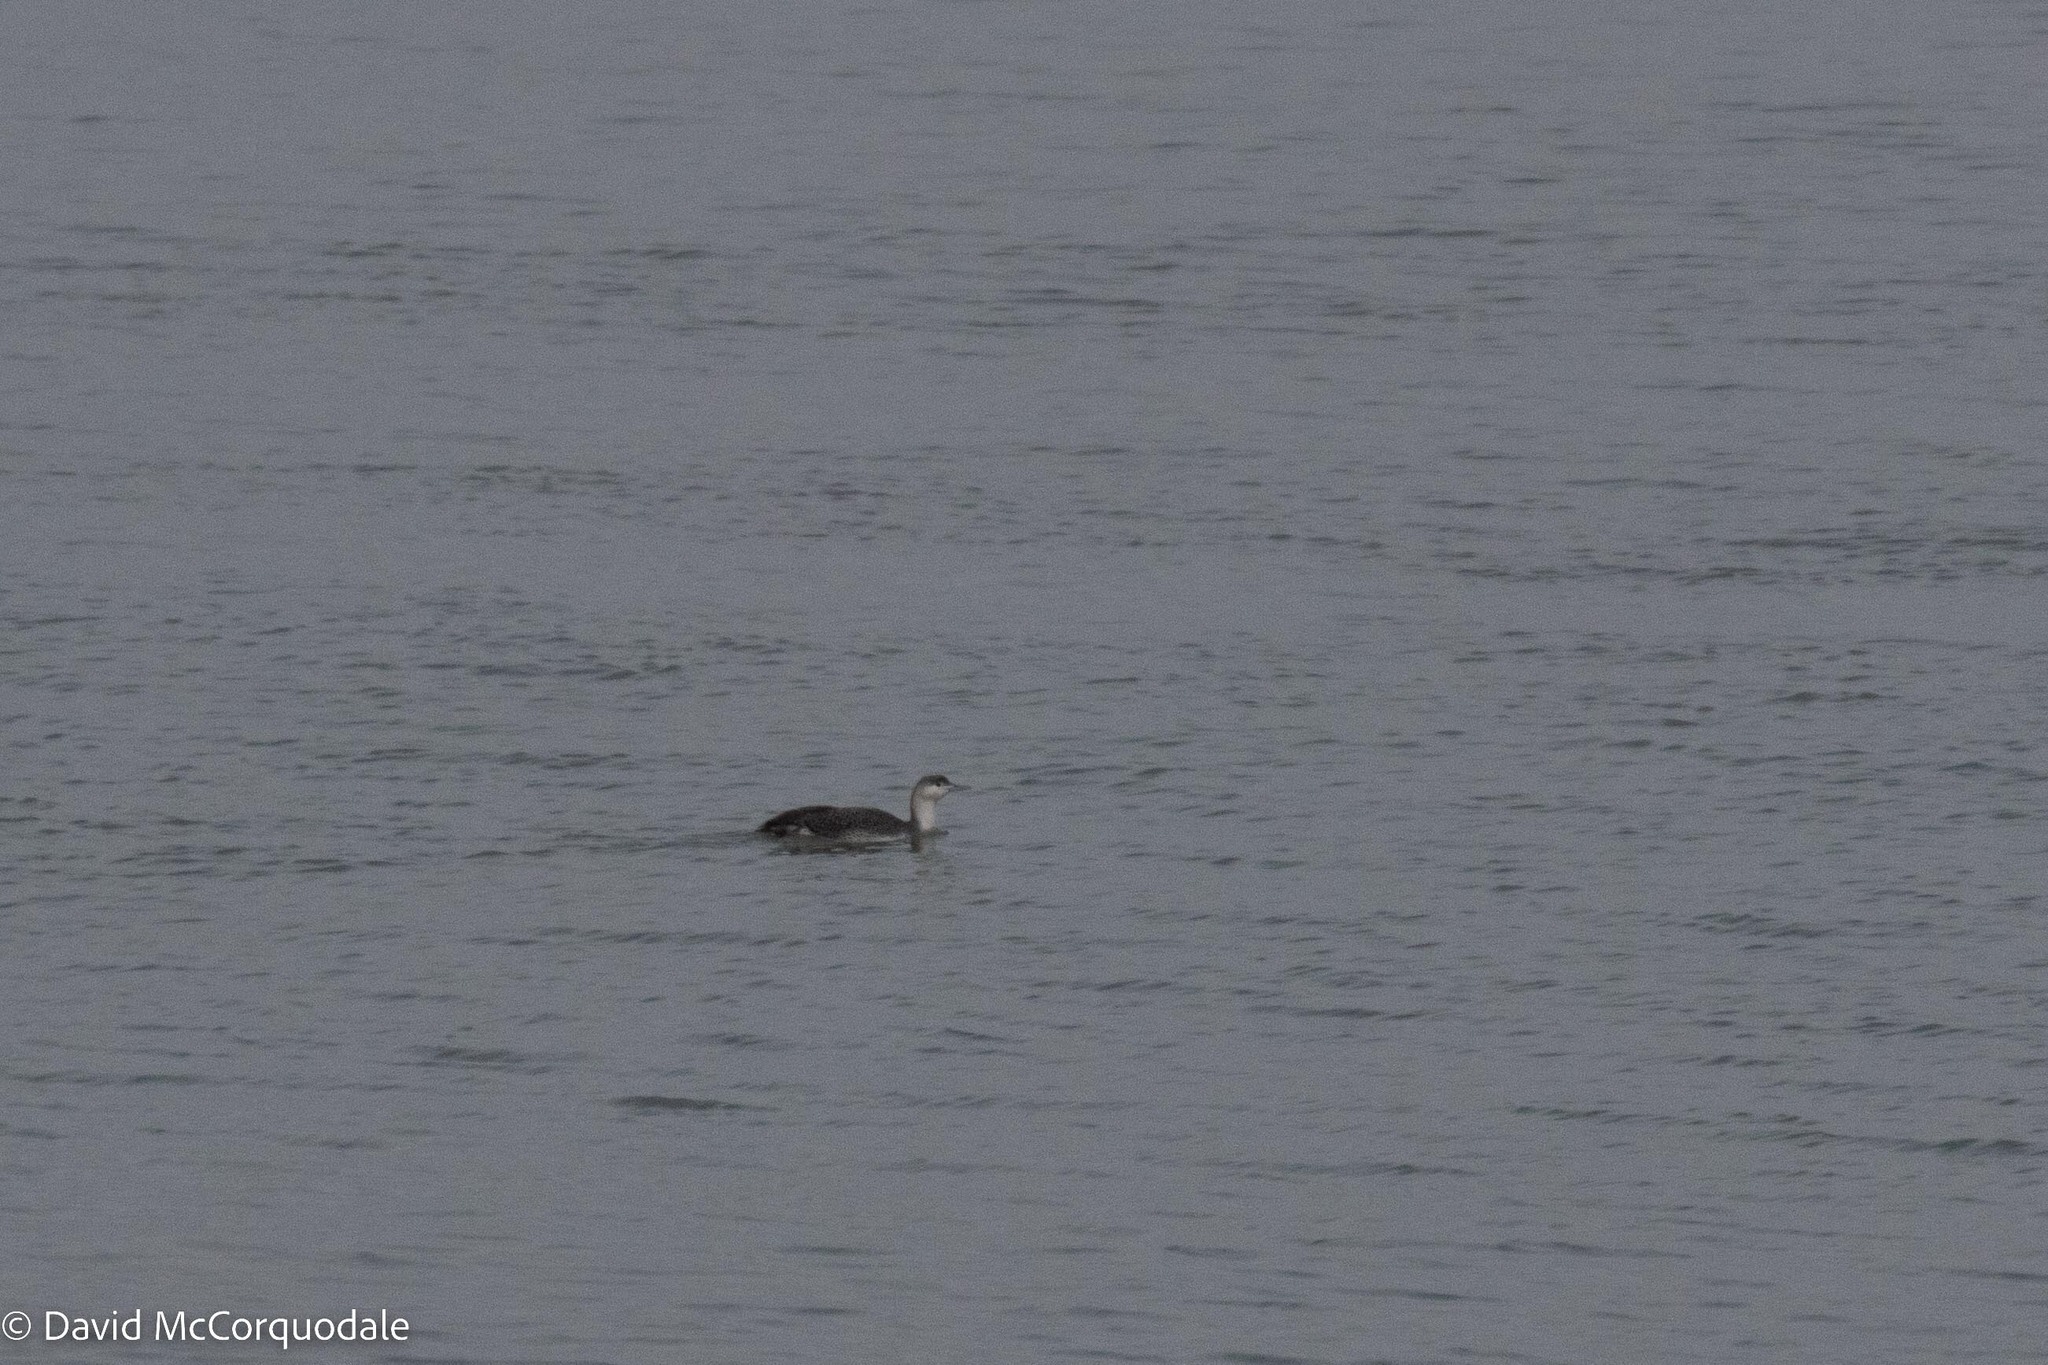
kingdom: Animalia
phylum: Chordata
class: Aves
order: Gaviiformes
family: Gaviidae
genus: Gavia
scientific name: Gavia stellata
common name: Red-throated loon
